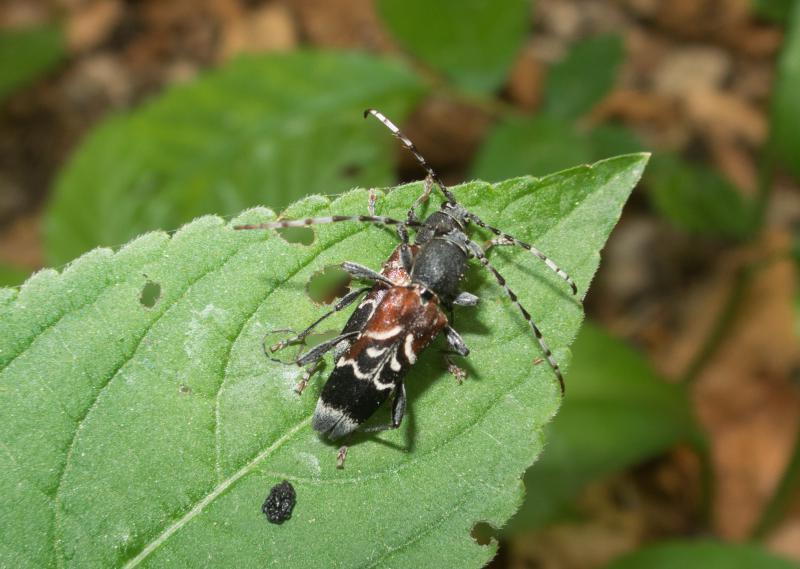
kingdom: Animalia
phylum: Arthropoda
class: Insecta
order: Coleoptera
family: Cerambycidae
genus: Anaglyptus
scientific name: Anaglyptus mysticus
